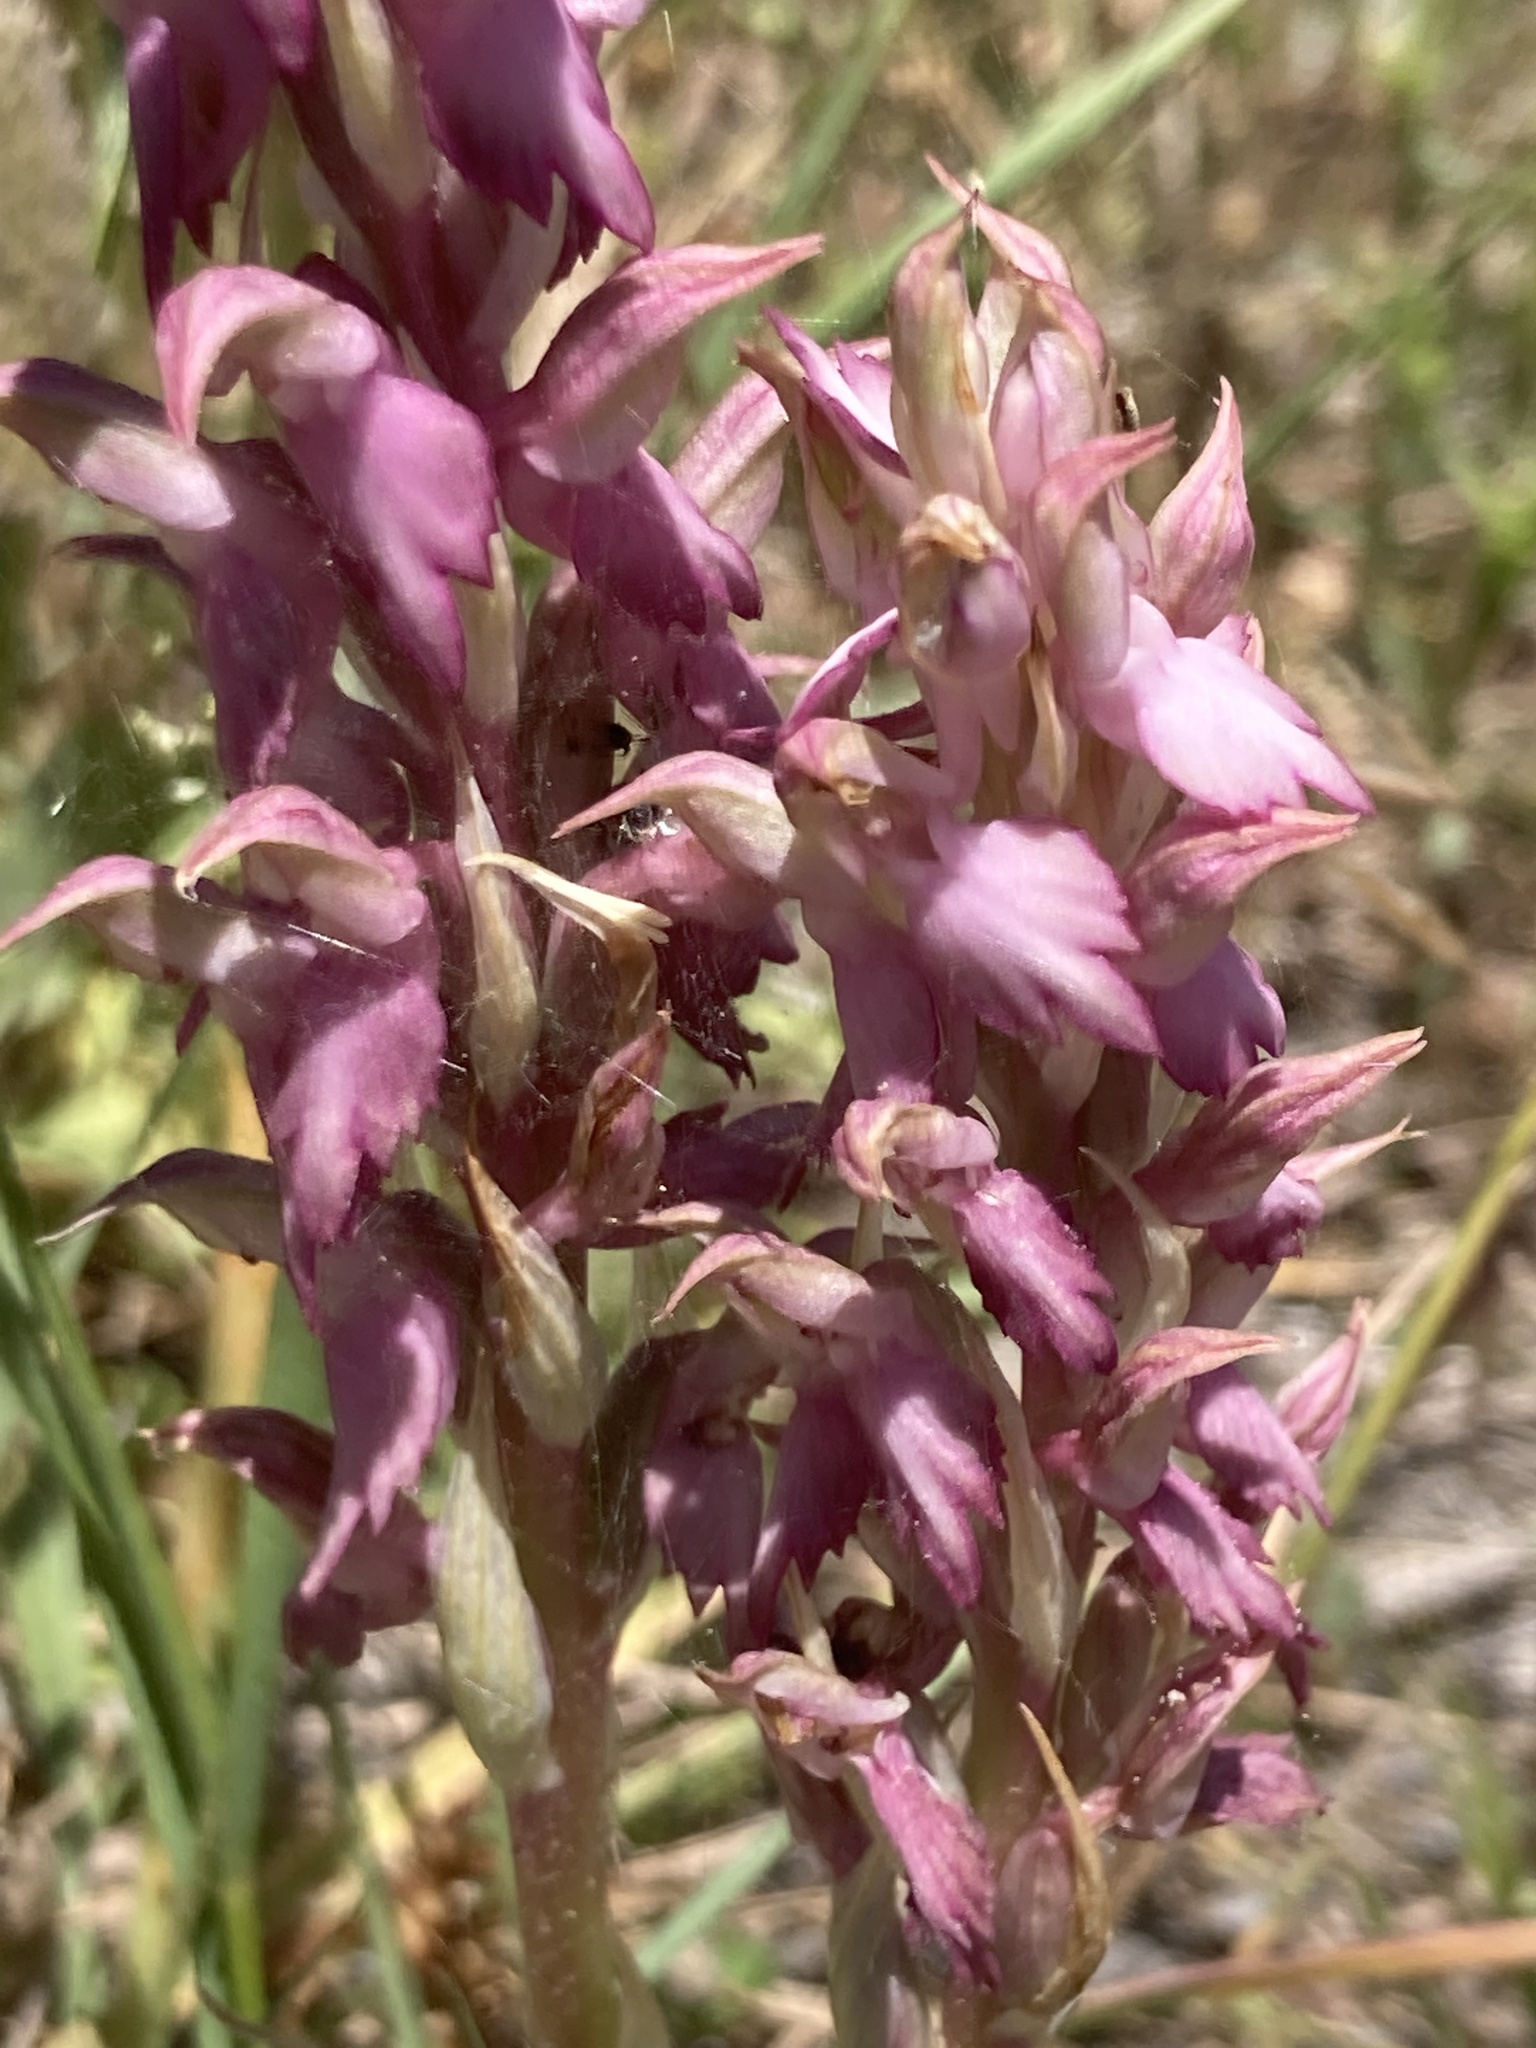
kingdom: Plantae
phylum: Tracheophyta
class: Liliopsida
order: Asparagales
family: Orchidaceae
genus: Anacamptis
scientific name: Anacamptis sancta
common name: Holy orchid
